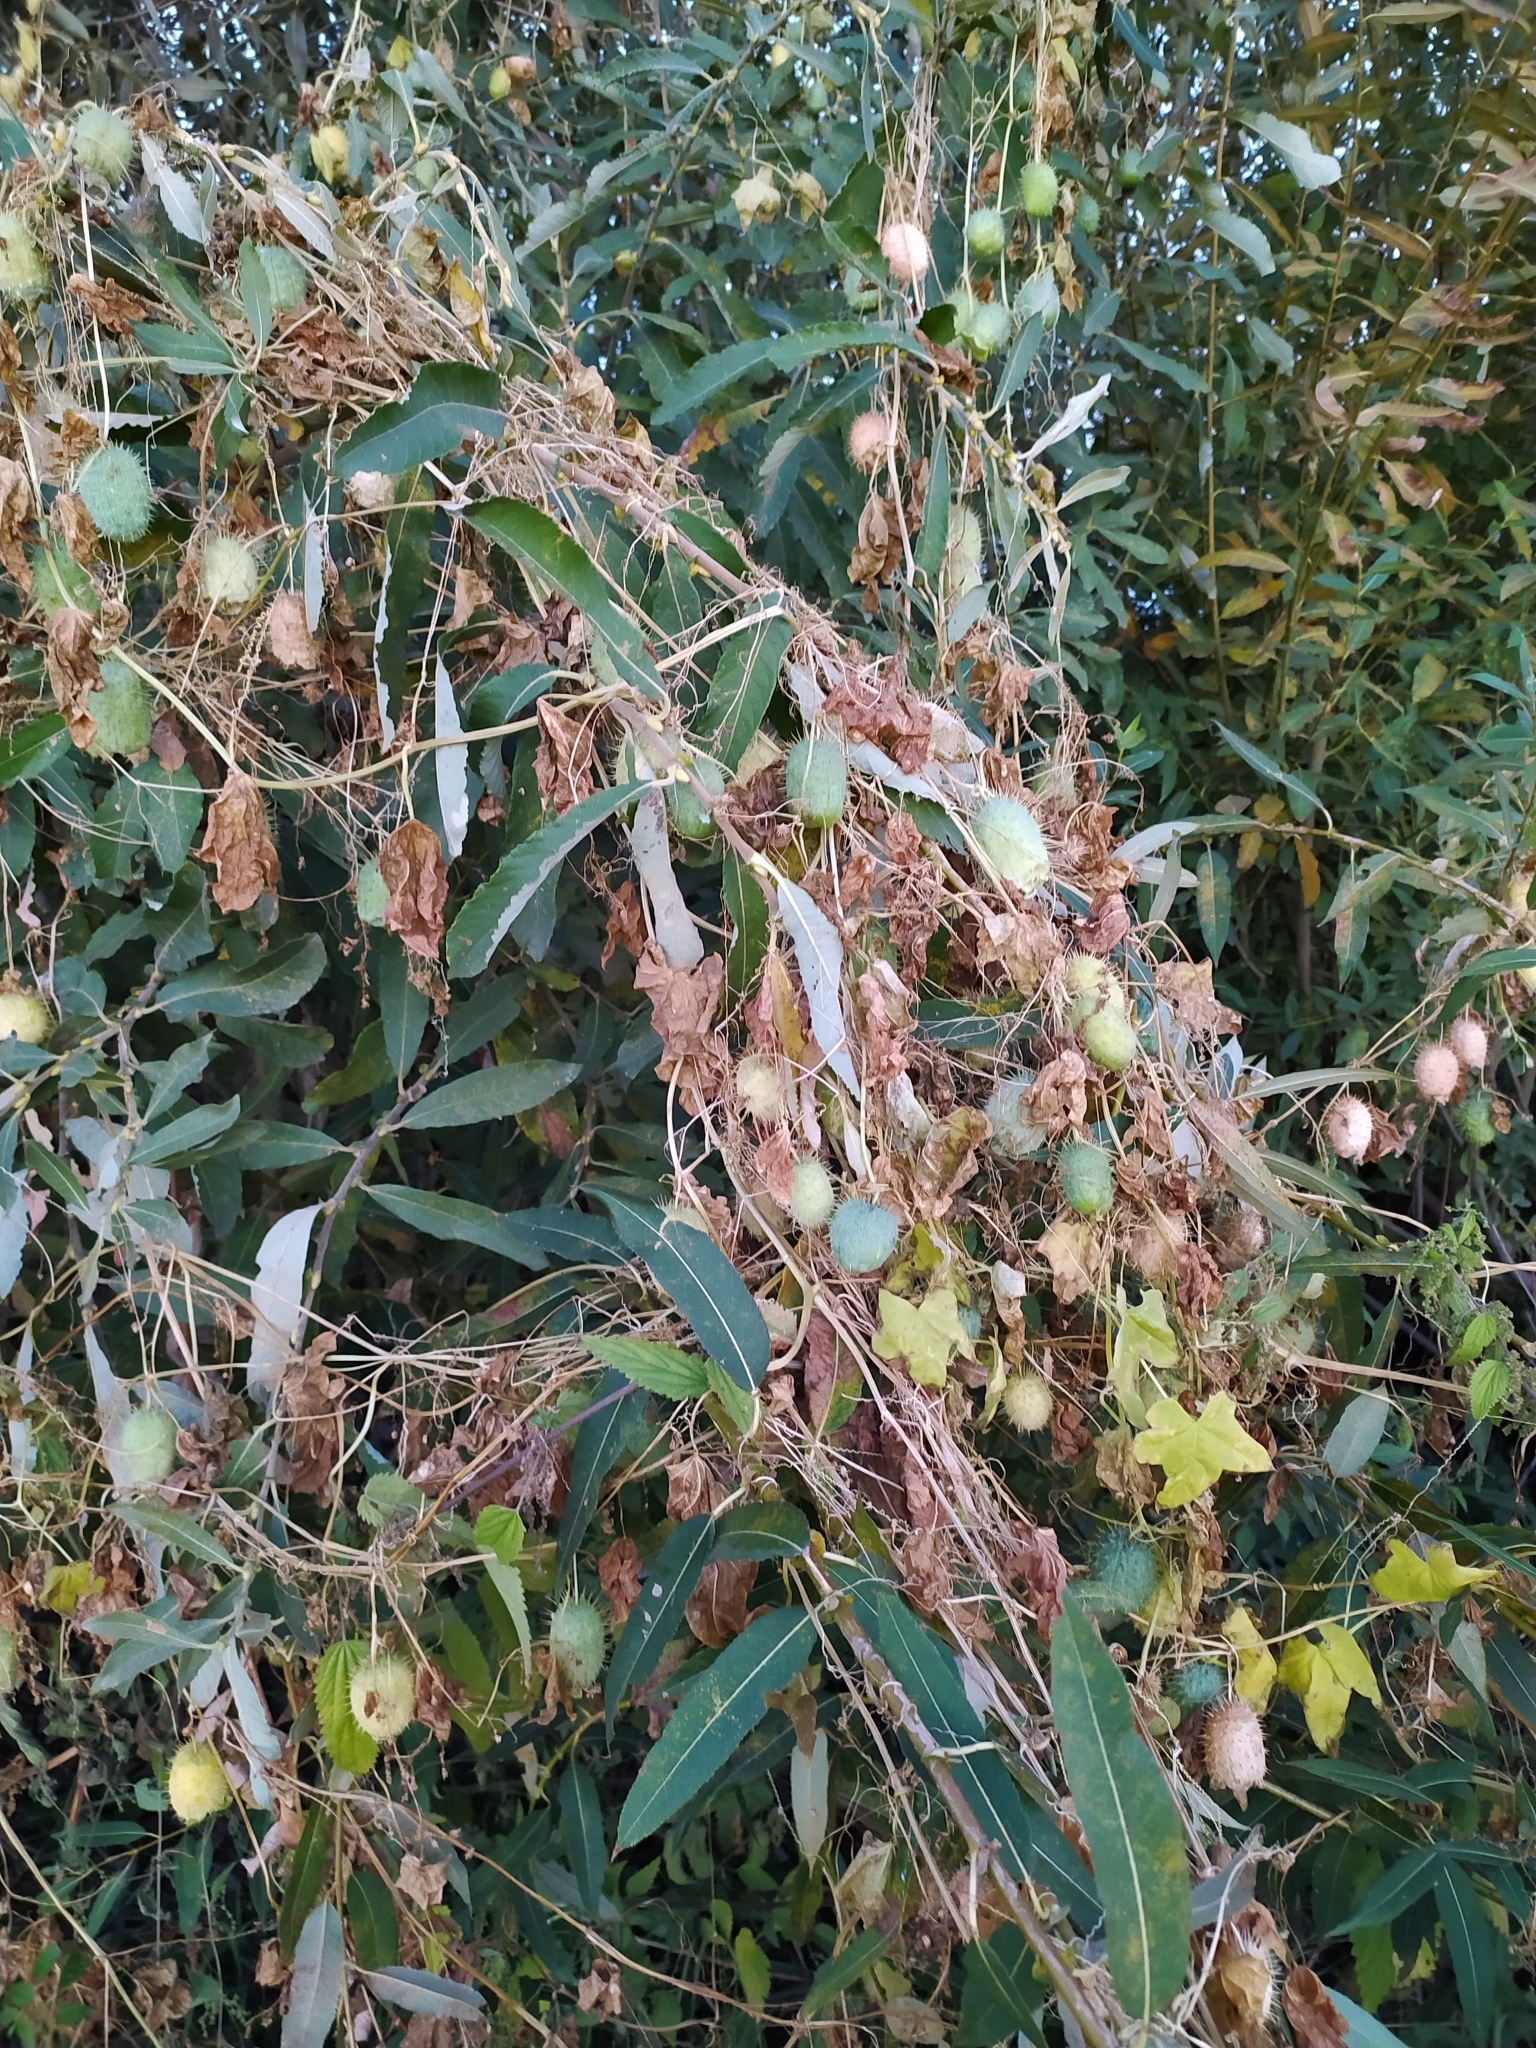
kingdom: Plantae
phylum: Tracheophyta
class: Magnoliopsida
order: Cucurbitales
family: Cucurbitaceae
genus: Echinocystis
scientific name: Echinocystis lobata
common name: Wild cucumber
